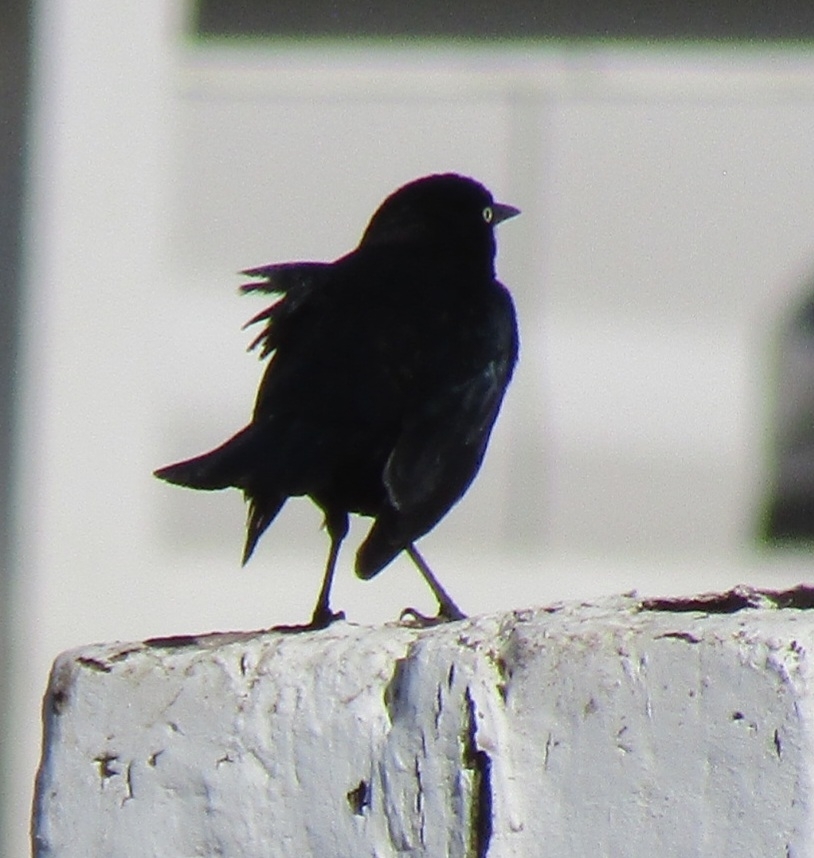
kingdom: Animalia
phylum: Chordata
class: Aves
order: Passeriformes
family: Icteridae
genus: Euphagus
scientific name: Euphagus cyanocephalus
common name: Brewer's blackbird
